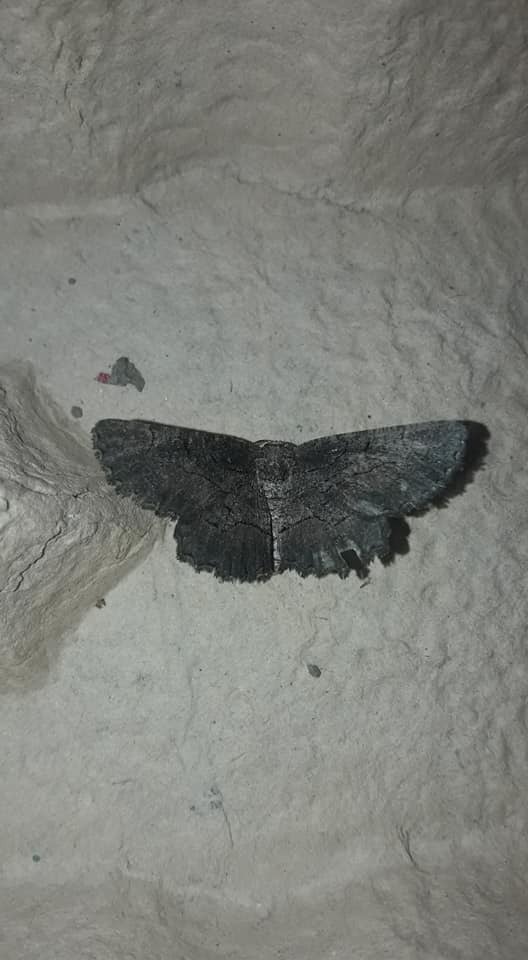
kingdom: Animalia
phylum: Arthropoda
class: Insecta
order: Lepidoptera
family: Geometridae
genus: Nychiodes
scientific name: Nychiodes
